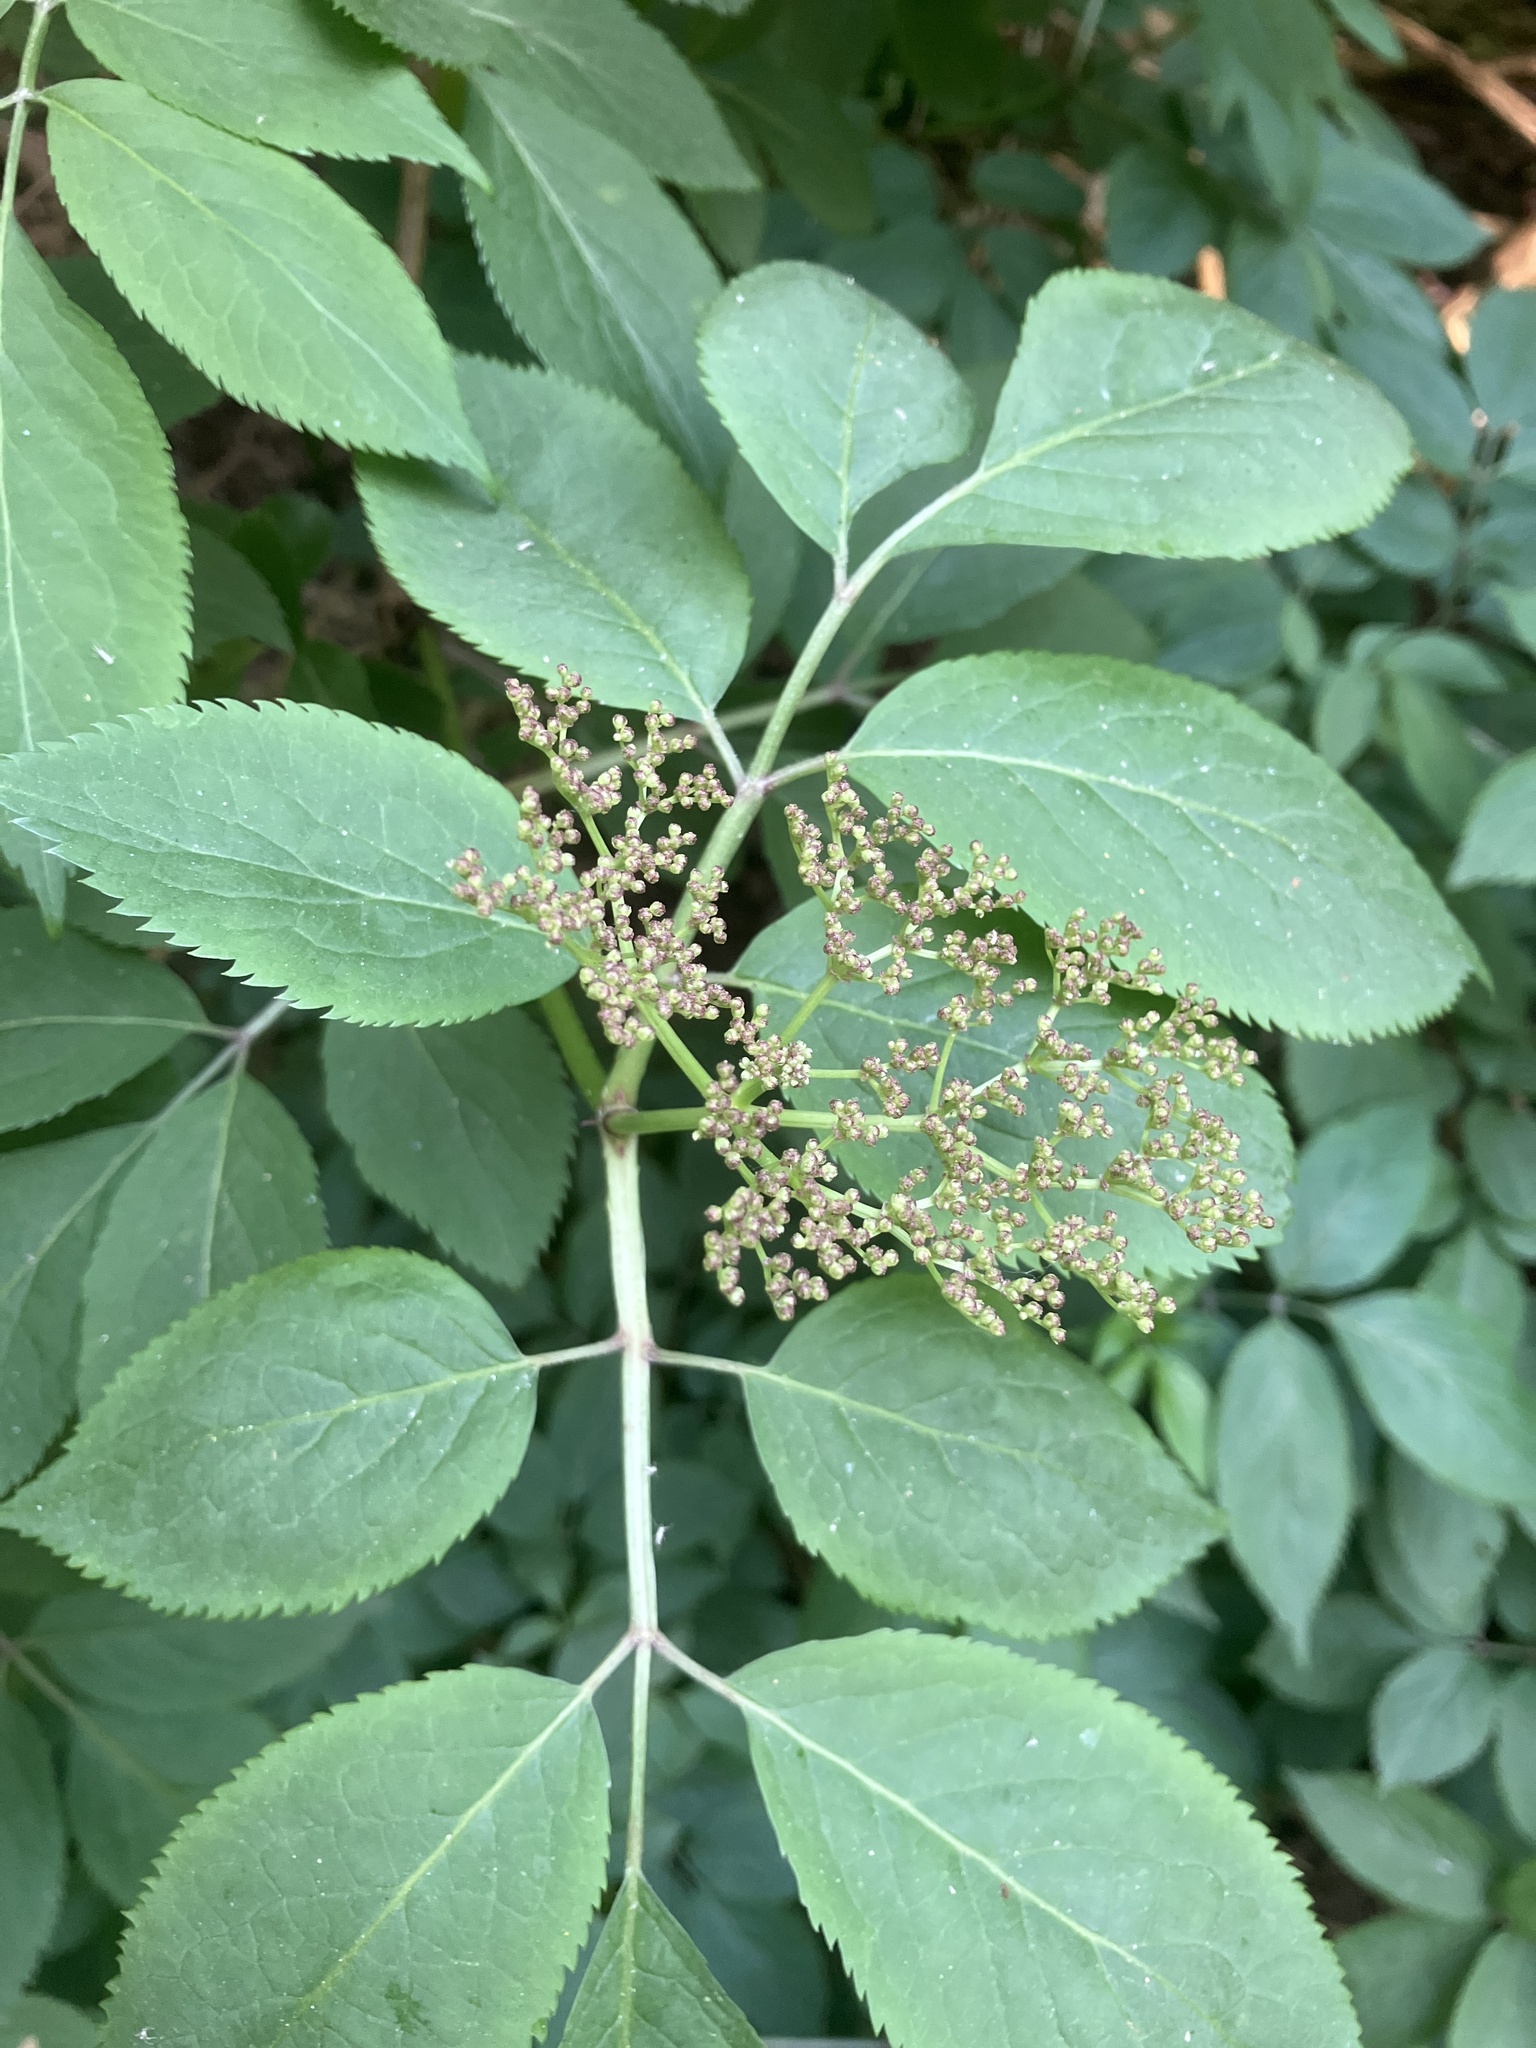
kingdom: Plantae
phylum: Tracheophyta
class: Magnoliopsida
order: Dipsacales
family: Viburnaceae
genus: Sambucus
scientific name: Sambucus nigra
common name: Elder
